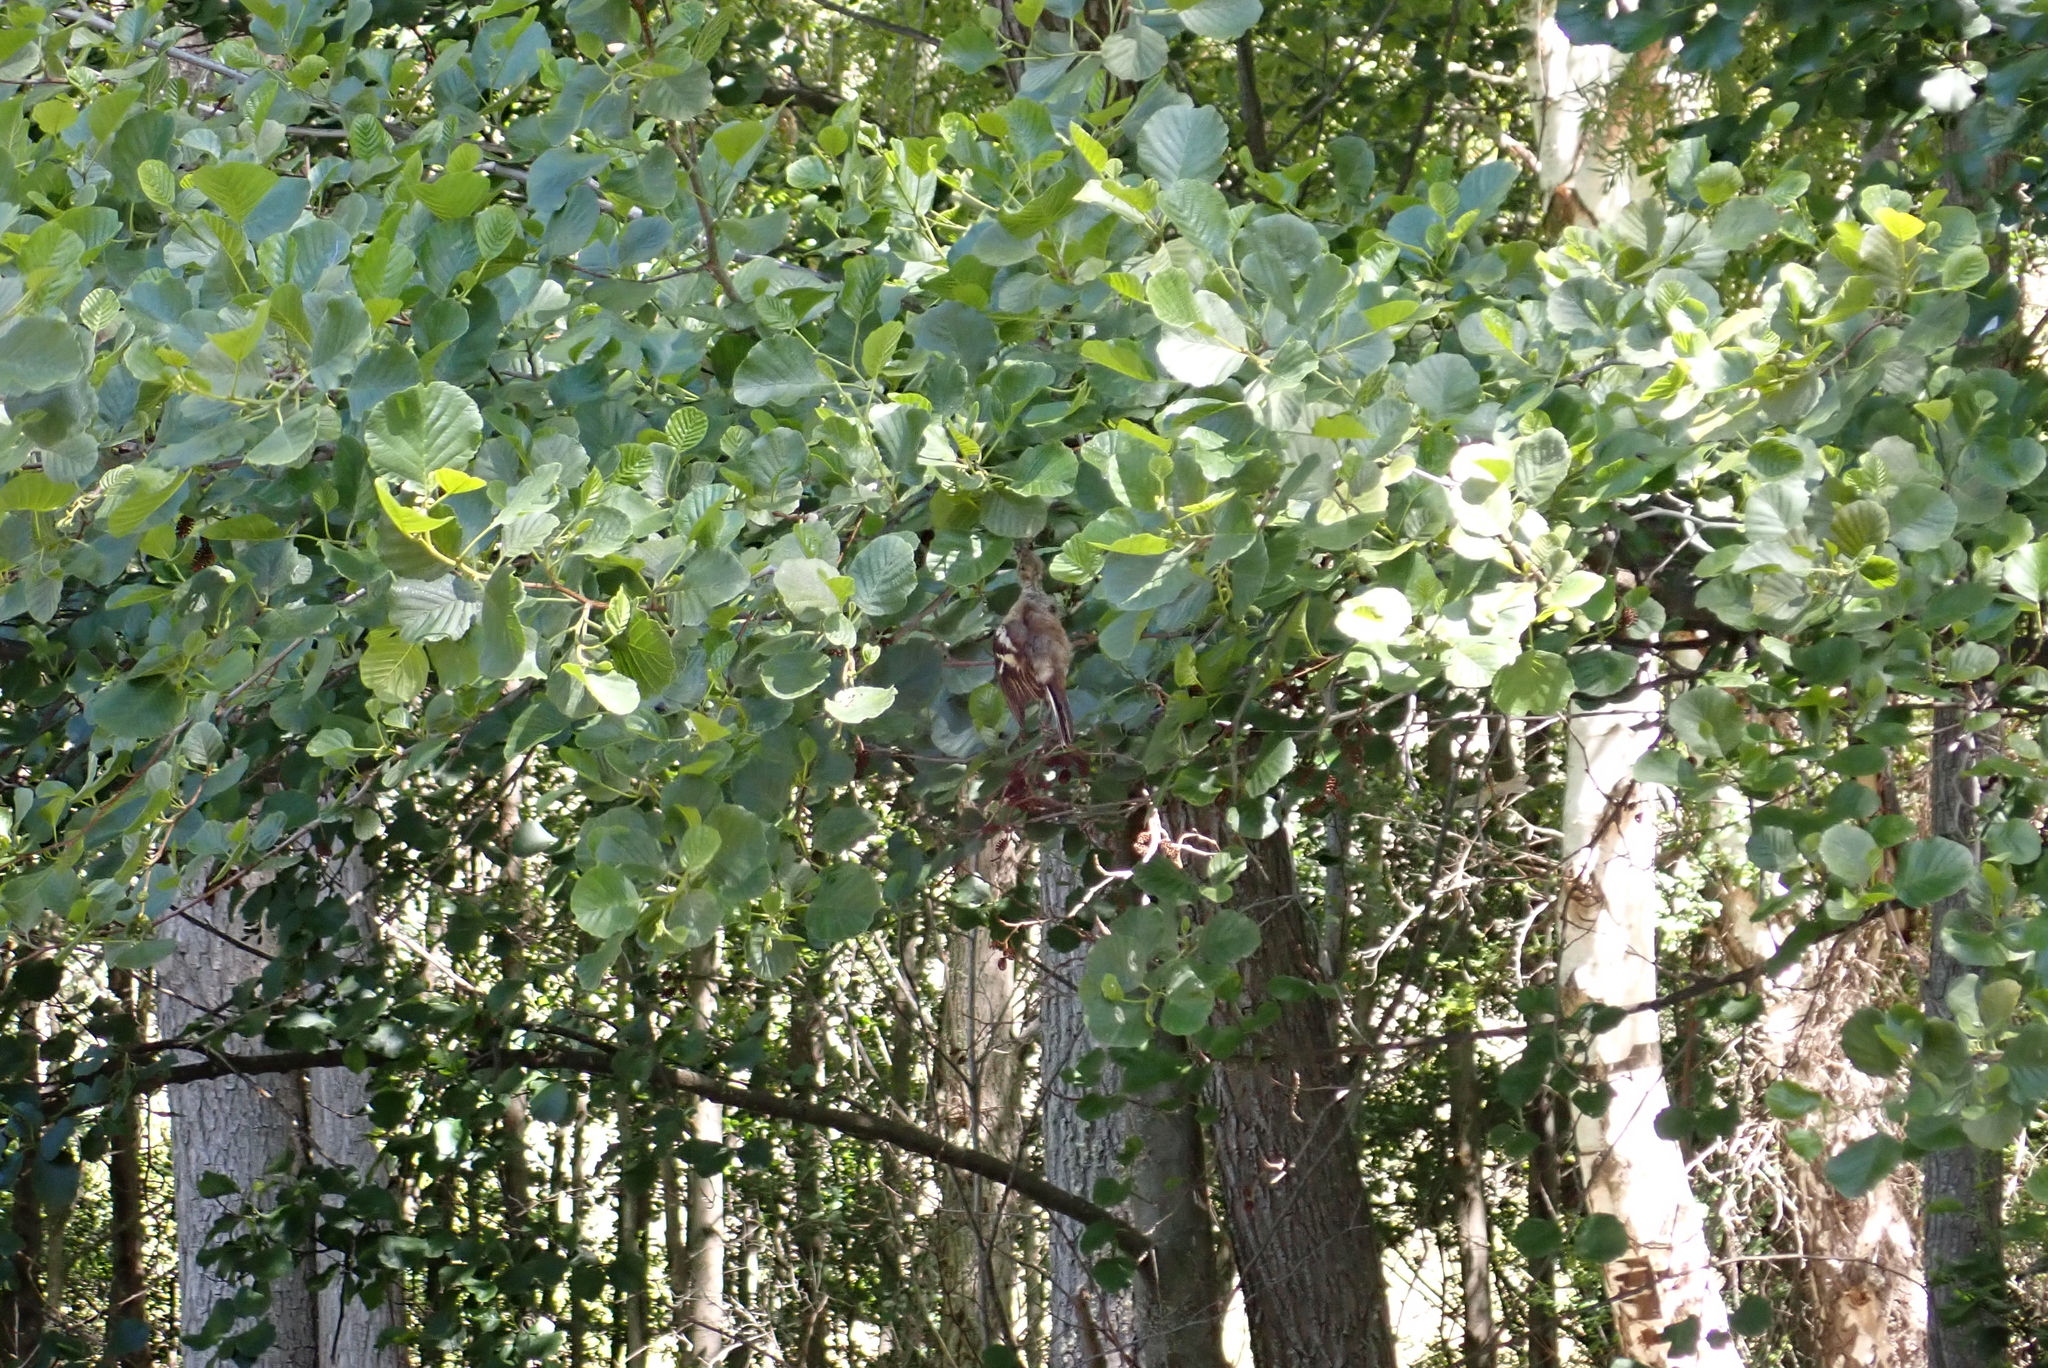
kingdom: Plantae
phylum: Tracheophyta
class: Magnoliopsida
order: Fagales
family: Betulaceae
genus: Alnus
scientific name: Alnus glutinosa
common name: Black alder
